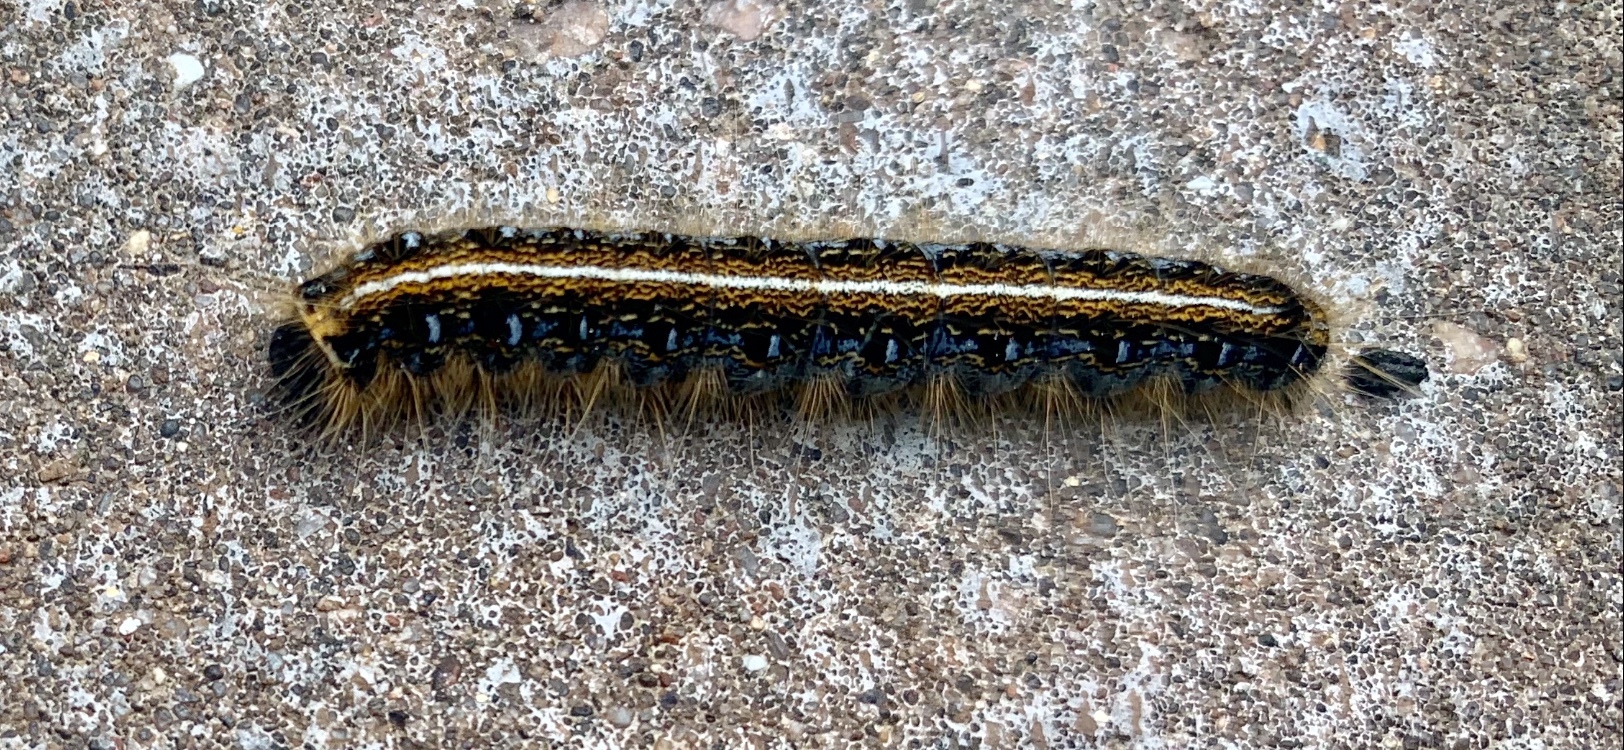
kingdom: Animalia
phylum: Arthropoda
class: Insecta
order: Lepidoptera
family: Lasiocampidae
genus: Malacosoma
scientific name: Malacosoma americana
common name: Eastern tent caterpillar moth
